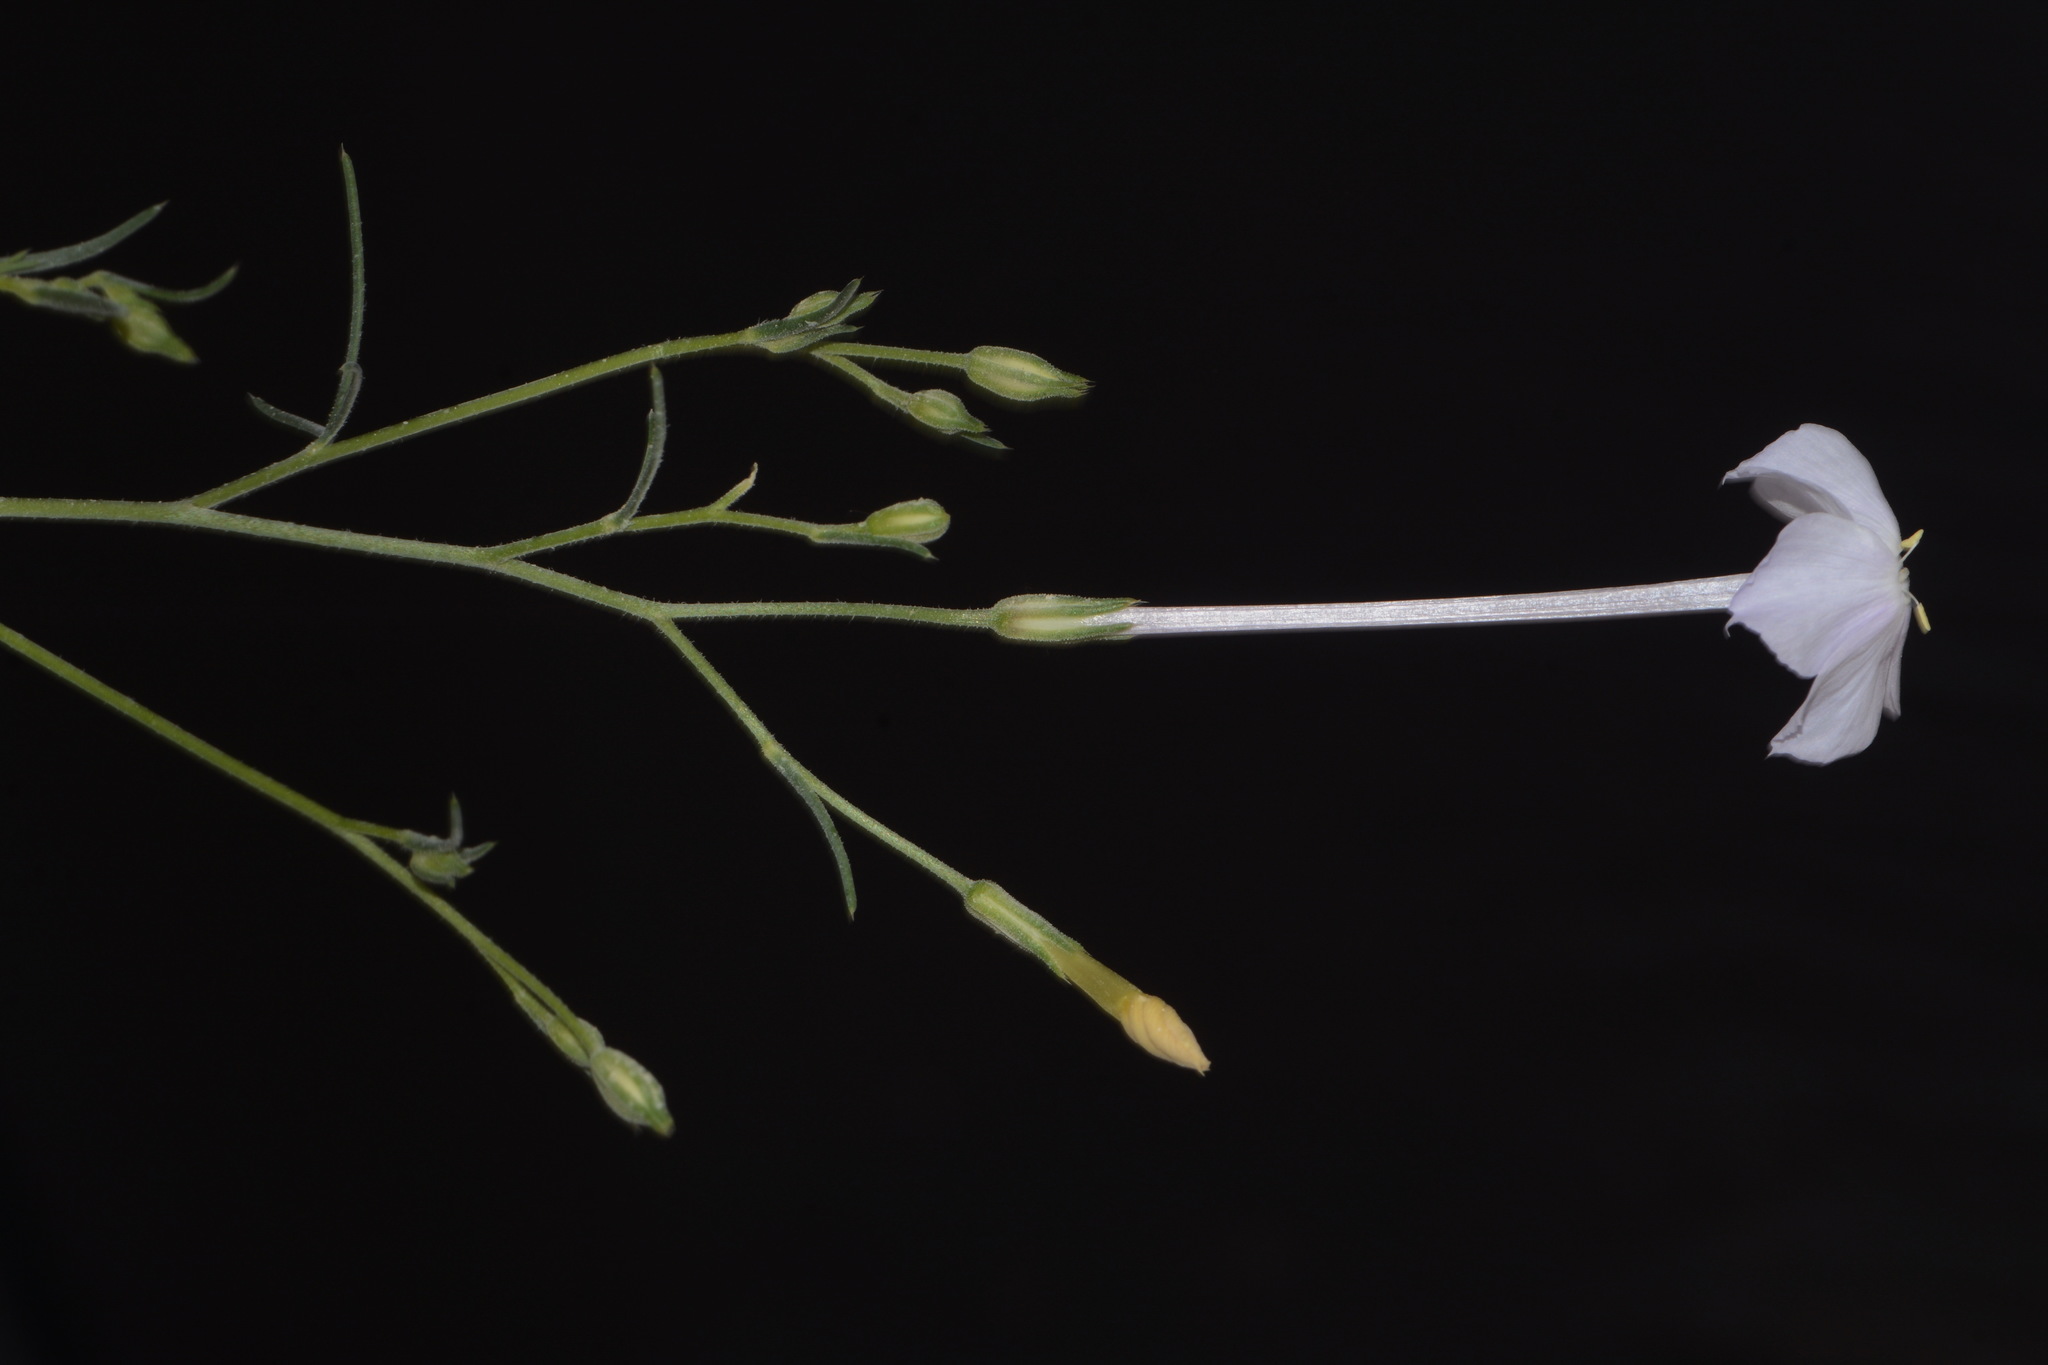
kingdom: Plantae
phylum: Tracheophyta
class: Magnoliopsida
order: Ericales
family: Polemoniaceae
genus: Ipomopsis
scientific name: Ipomopsis longiflora
